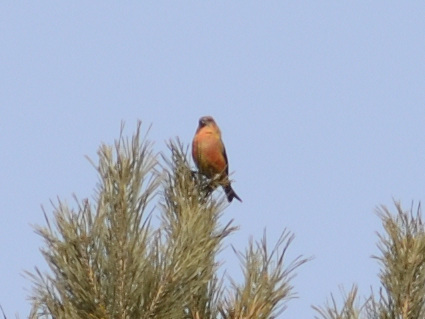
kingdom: Animalia
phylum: Chordata
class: Aves
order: Passeriformes
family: Fringillidae
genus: Loxia
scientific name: Loxia curvirostra
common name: Red crossbill
